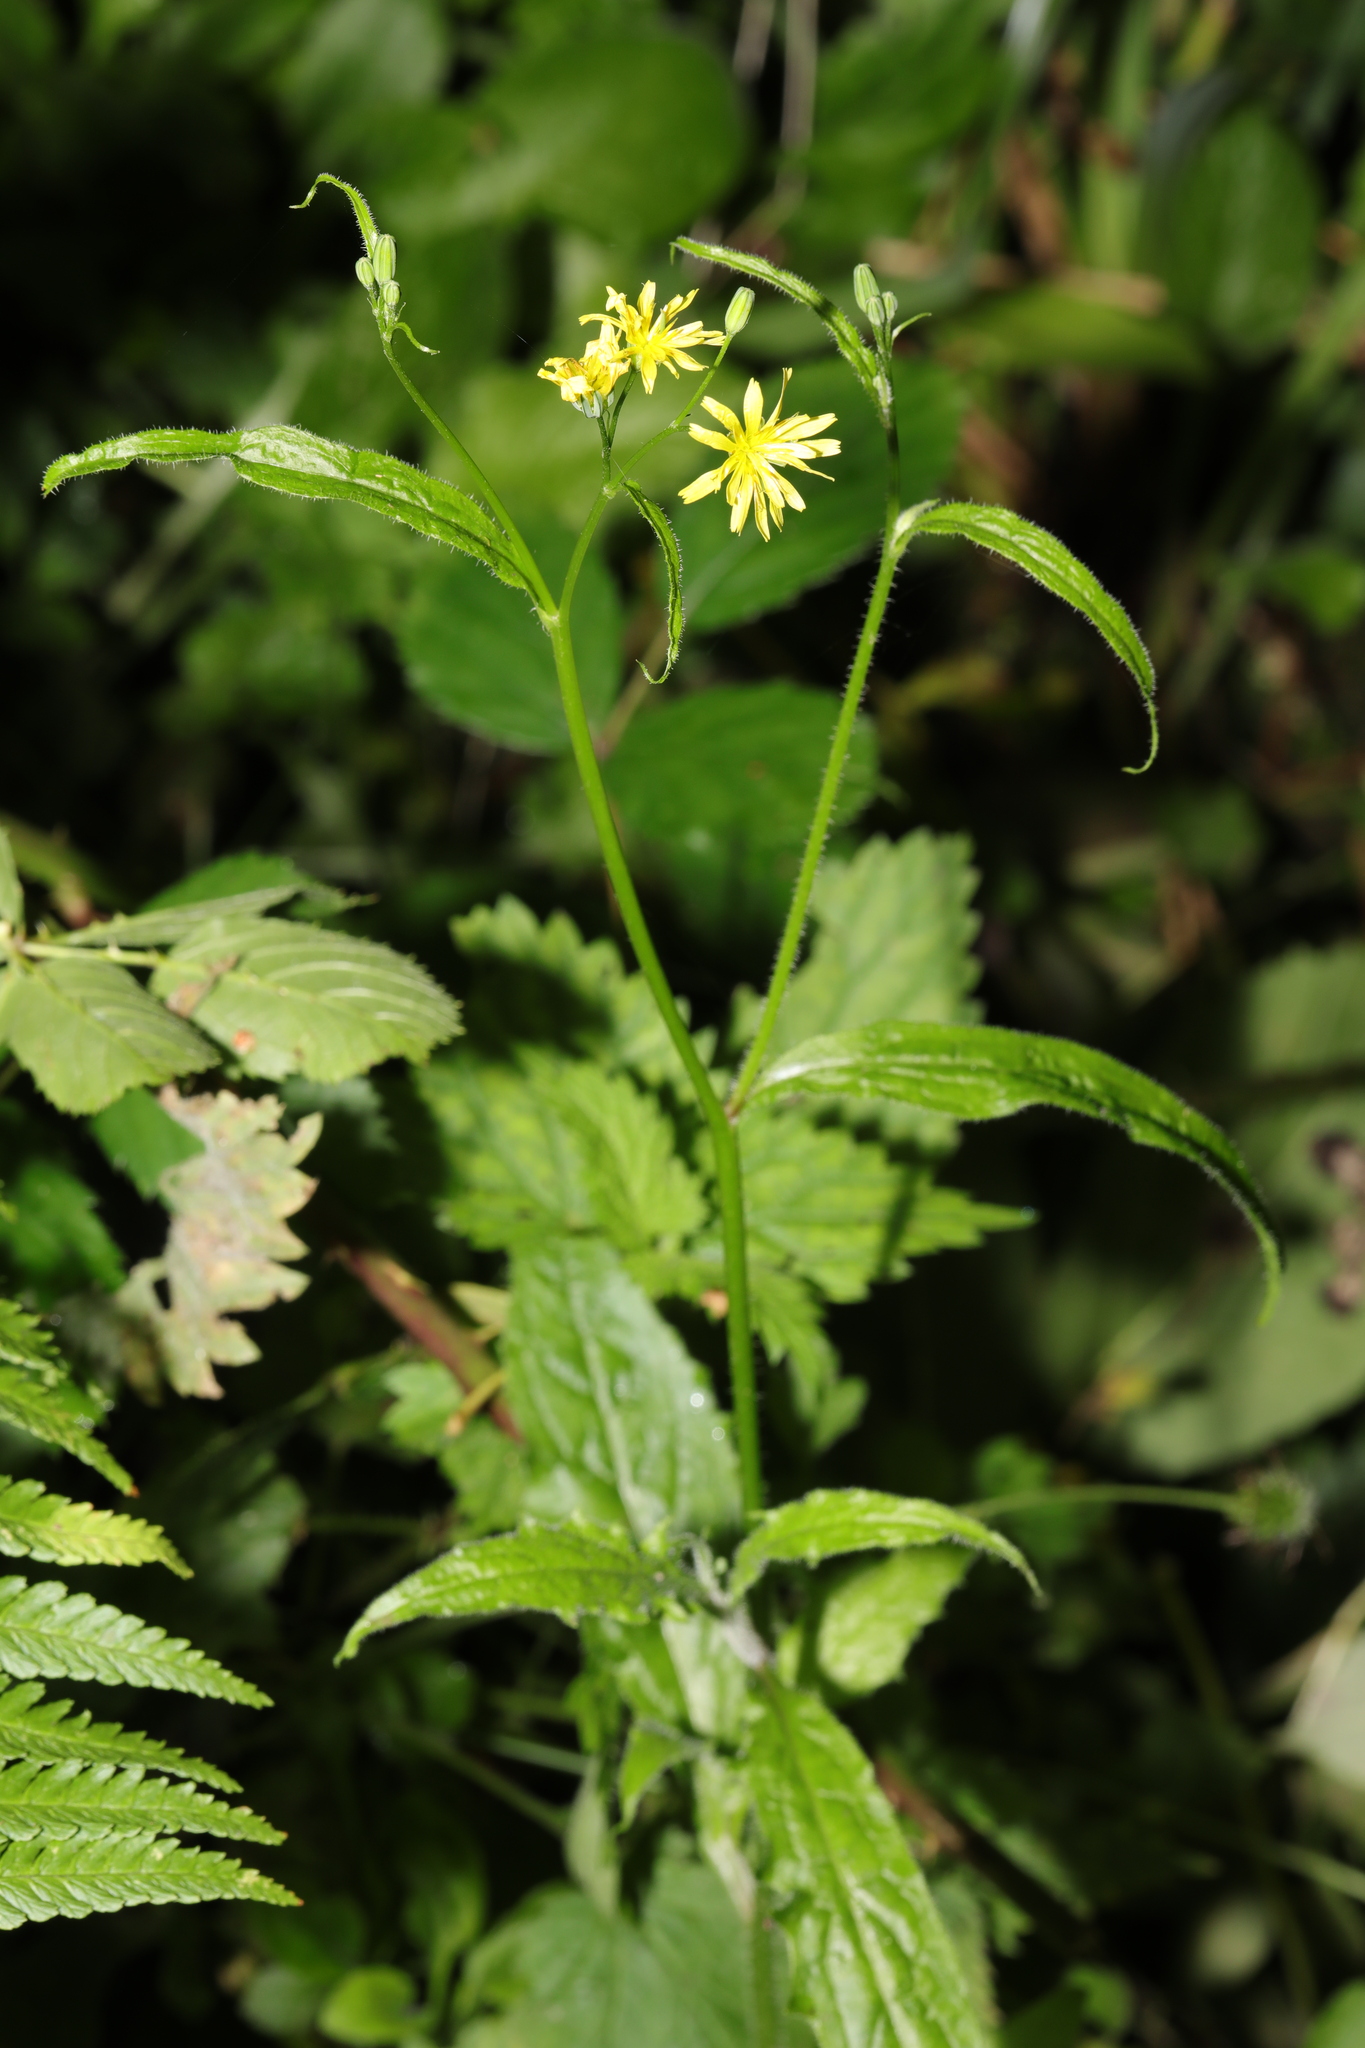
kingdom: Plantae
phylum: Tracheophyta
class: Magnoliopsida
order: Asterales
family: Asteraceae
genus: Lapsana
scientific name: Lapsana communis
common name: Nipplewort
